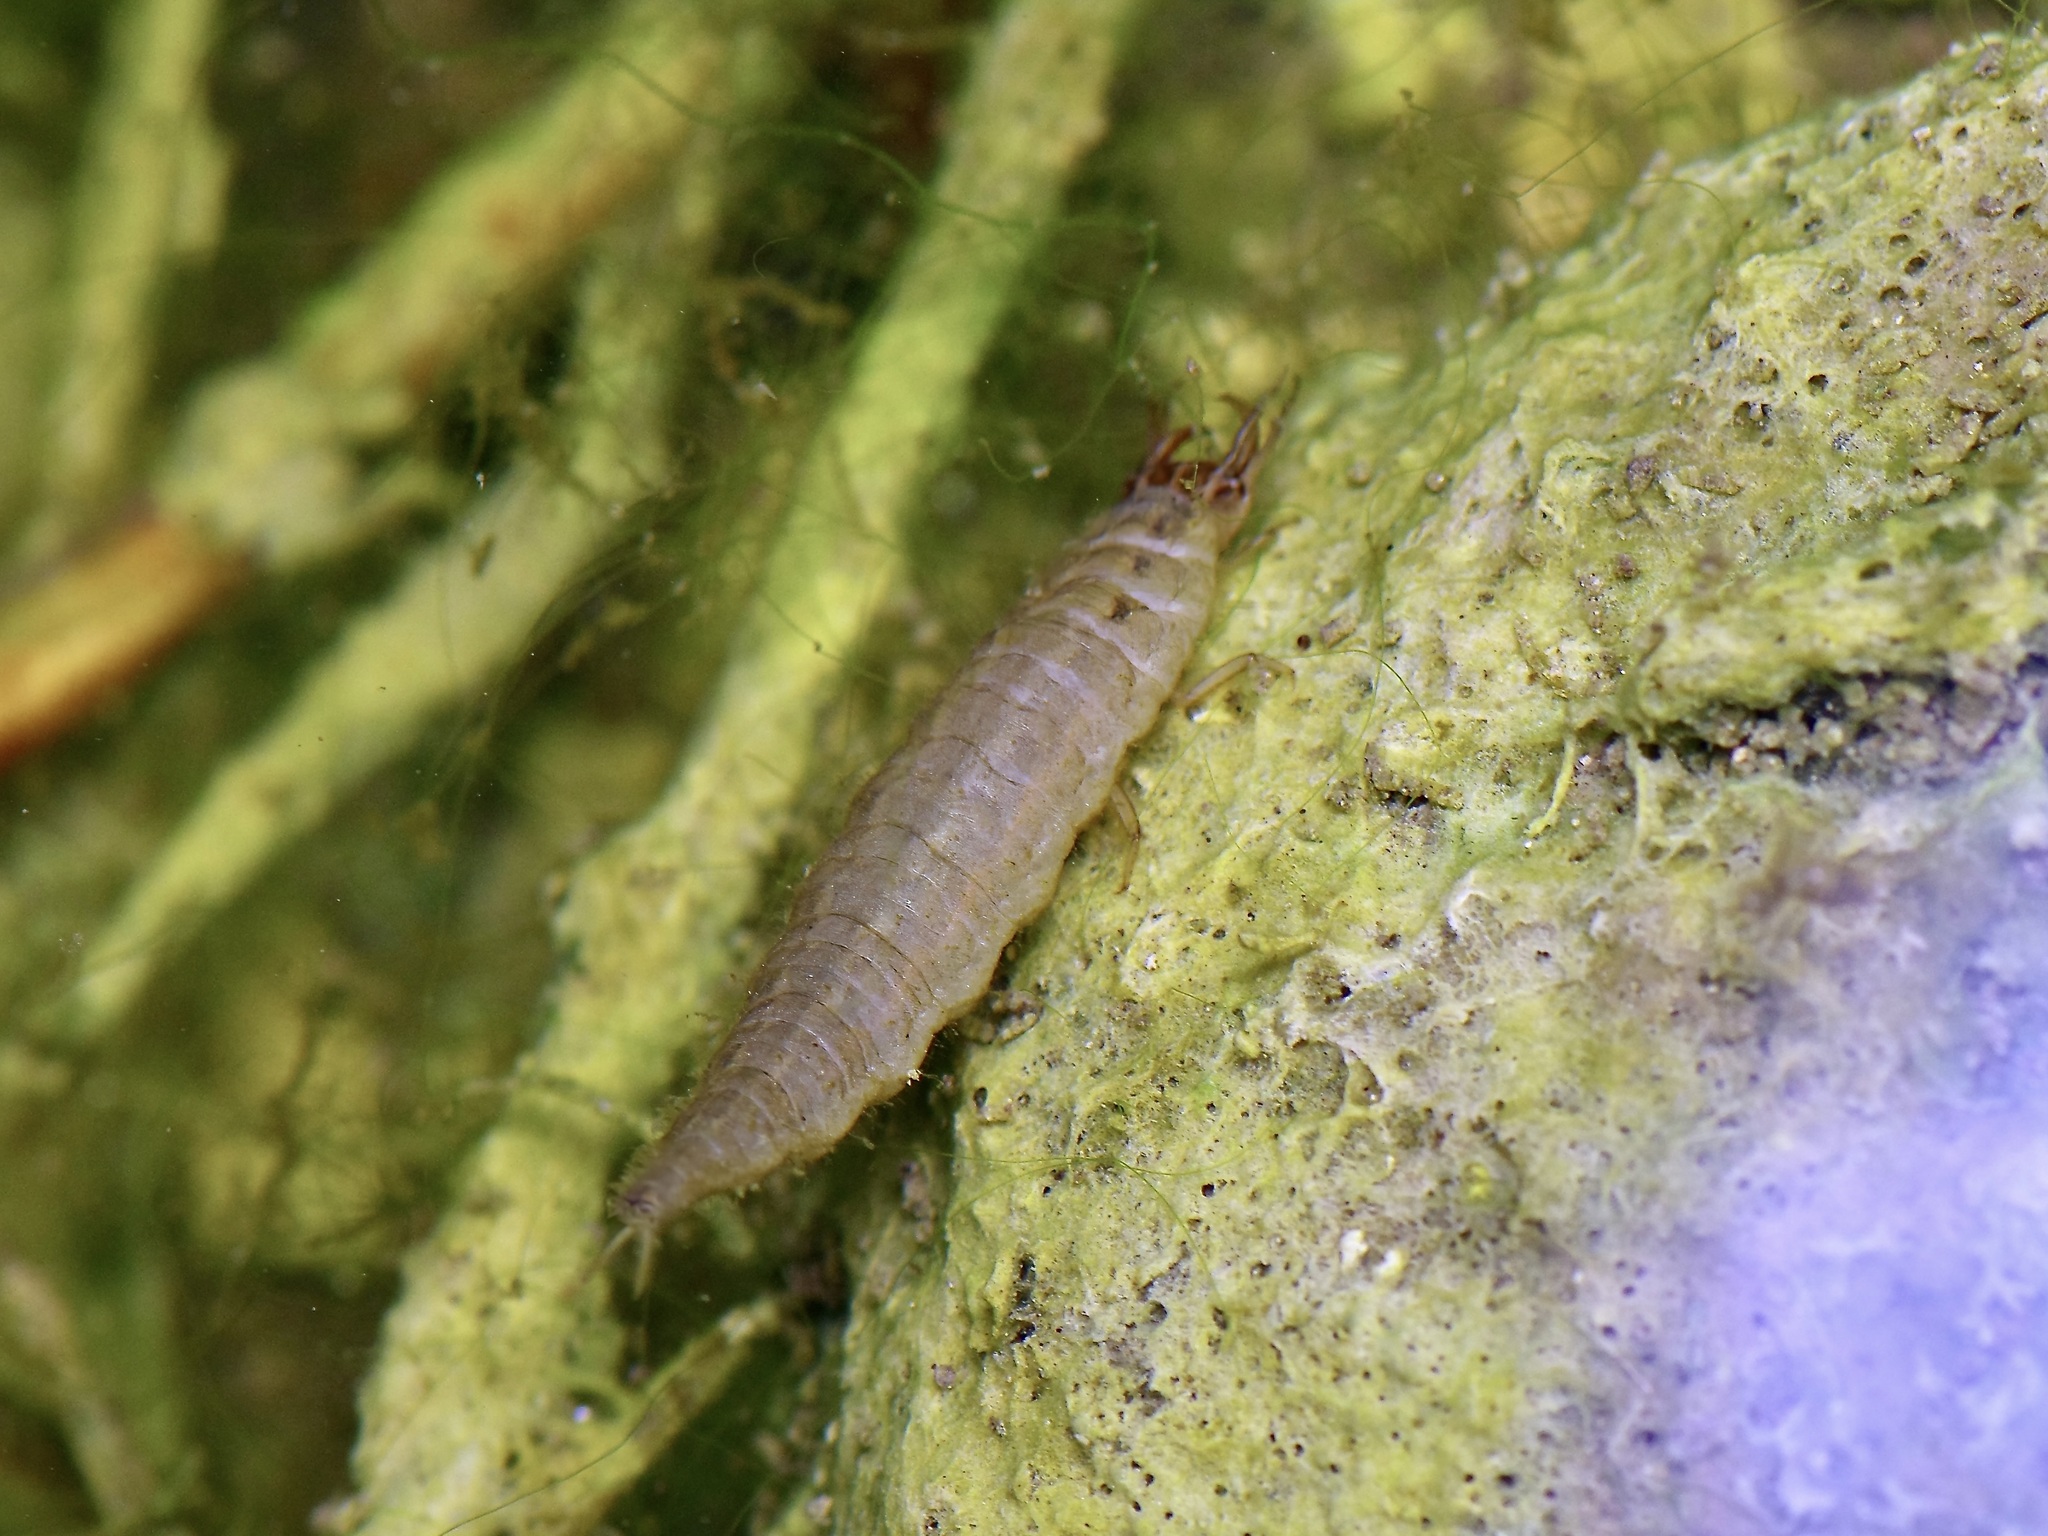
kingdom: Animalia
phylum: Arthropoda
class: Insecta
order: Coleoptera
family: Hydrophilidae
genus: Hydrophilus
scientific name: Hydrophilus
